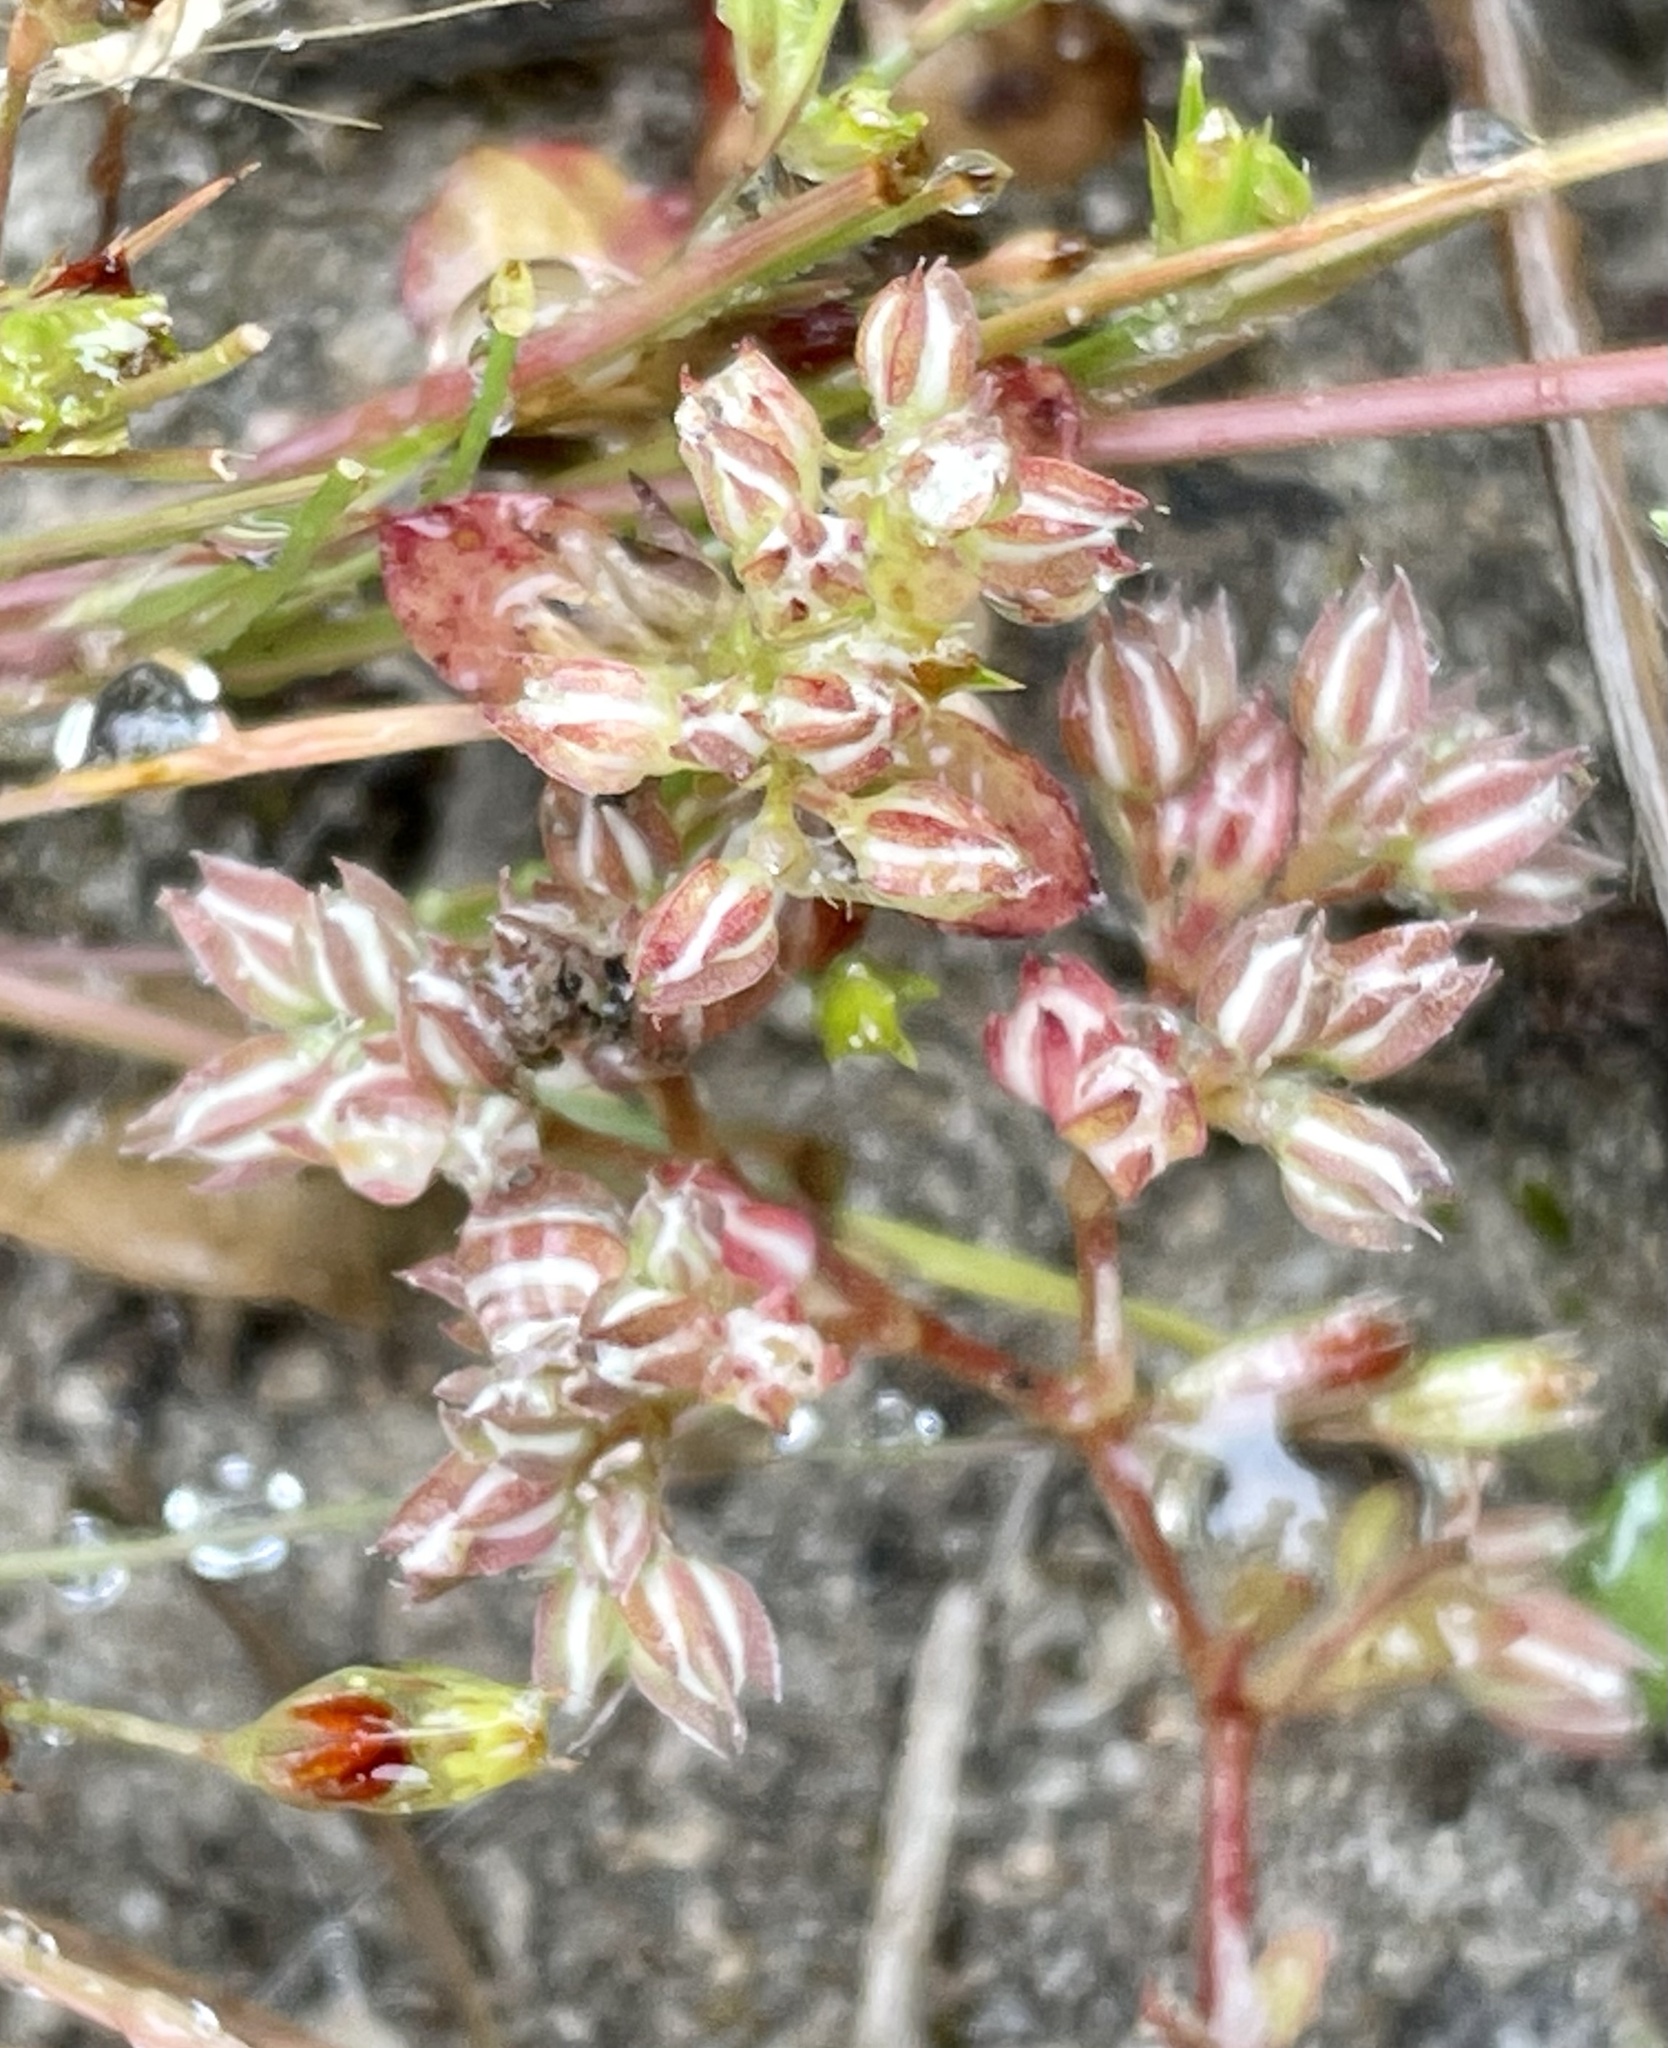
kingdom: Plantae
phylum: Tracheophyta
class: Magnoliopsida
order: Caryophyllales
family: Caryophyllaceae
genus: Polycarpon
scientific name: Polycarpon tetraphyllum
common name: Four-leaved all-seed
